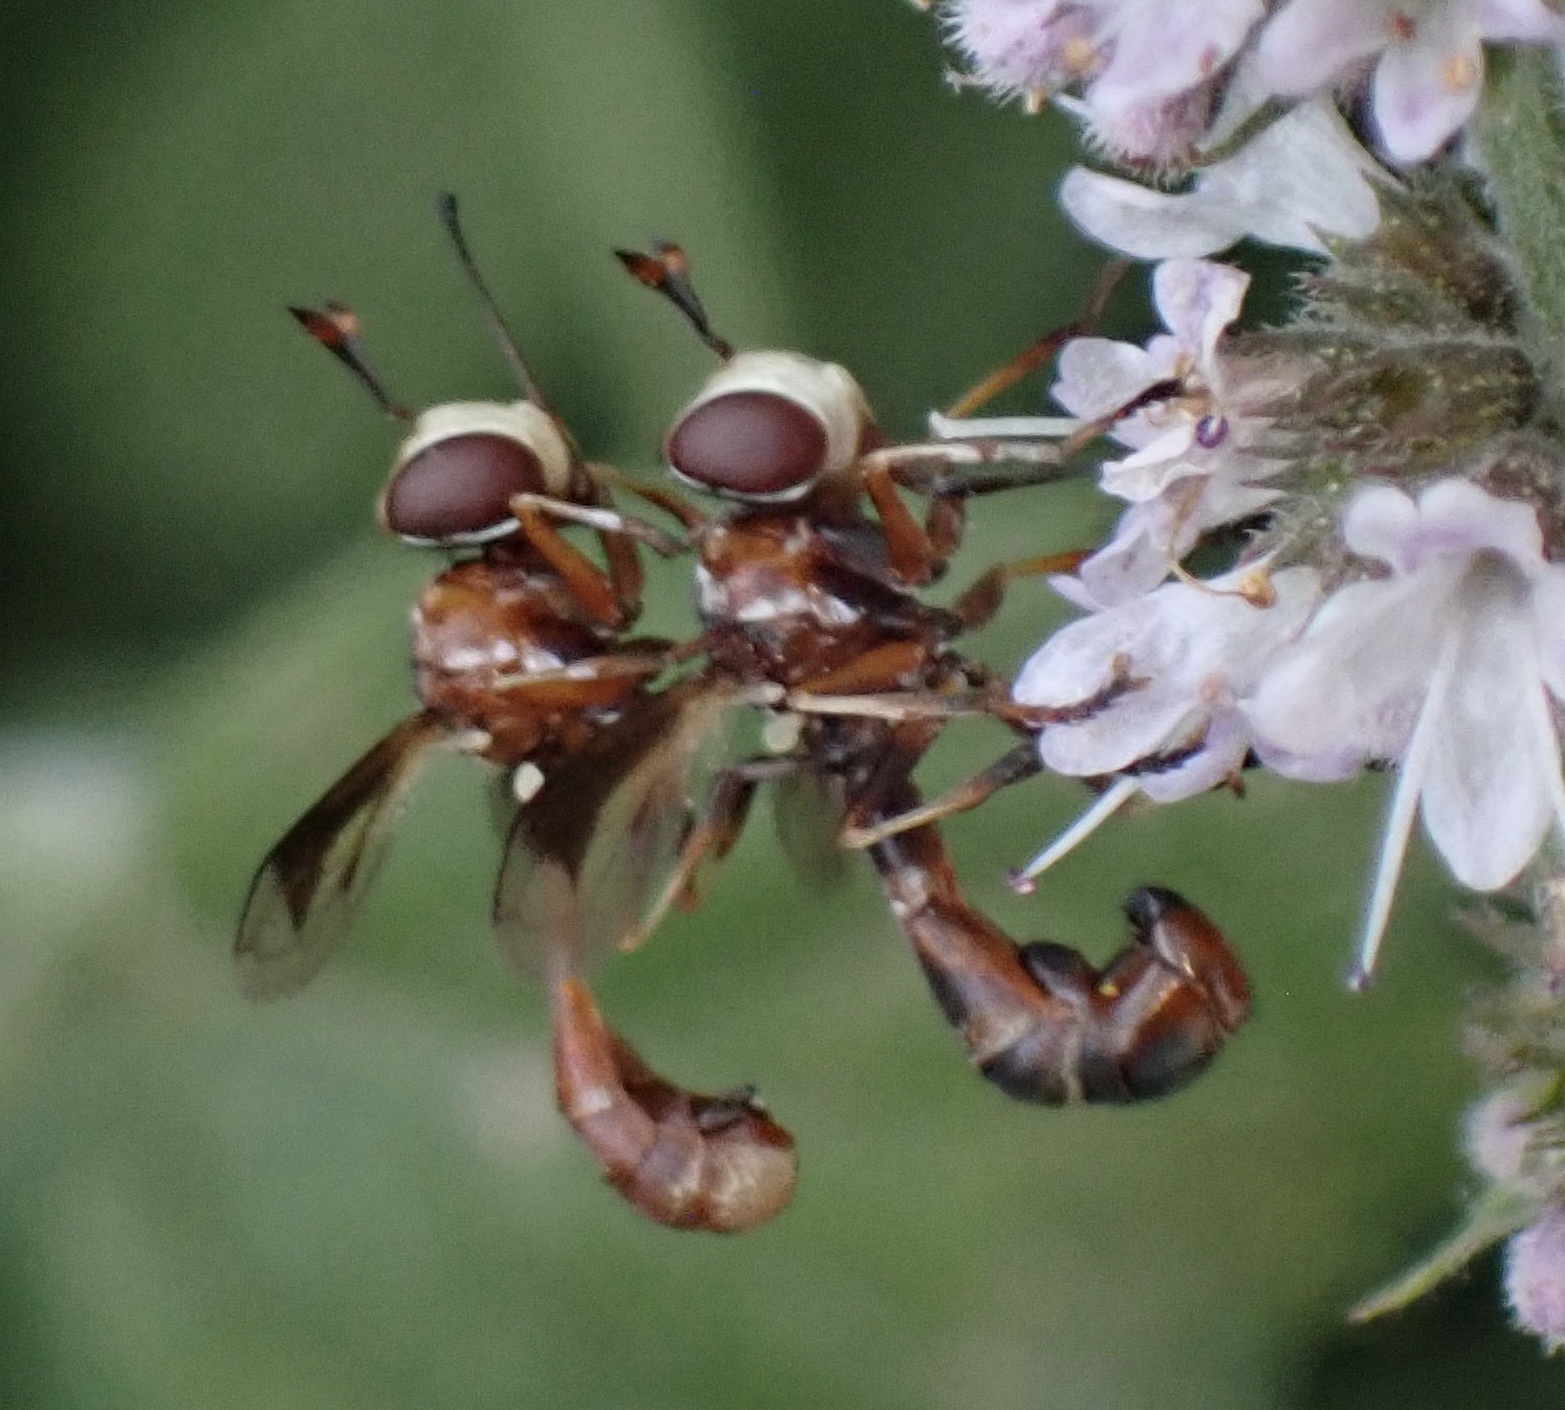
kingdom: Animalia
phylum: Arthropoda
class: Insecta
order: Diptera
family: Conopidae
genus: Physocephala
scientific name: Physocephala vittata
